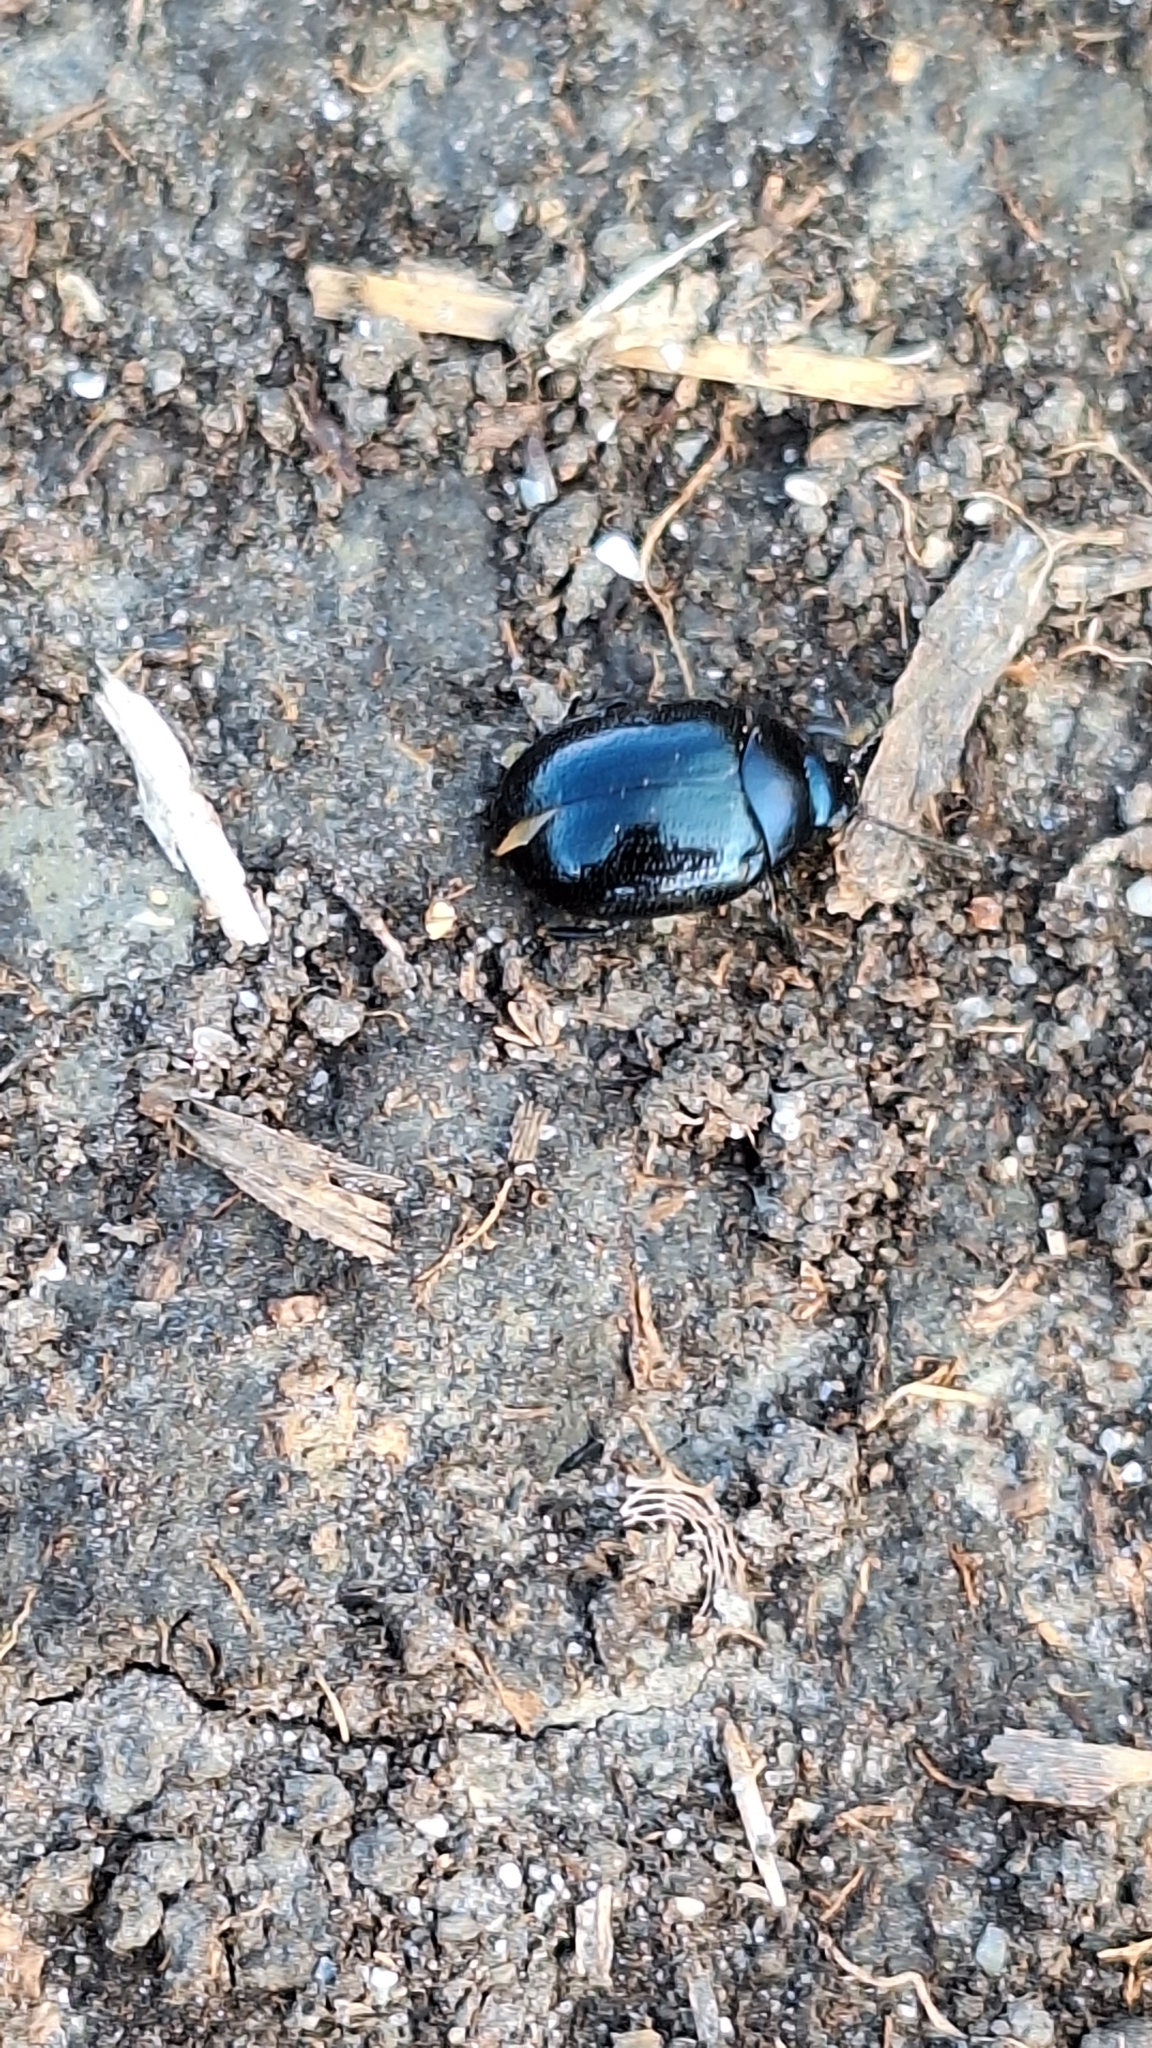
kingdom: Animalia
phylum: Arthropoda
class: Insecta
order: Coleoptera
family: Chrysomelidae
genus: Chrysolina
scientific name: Chrysolina haemoptera
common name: Plantain leaf beetle
